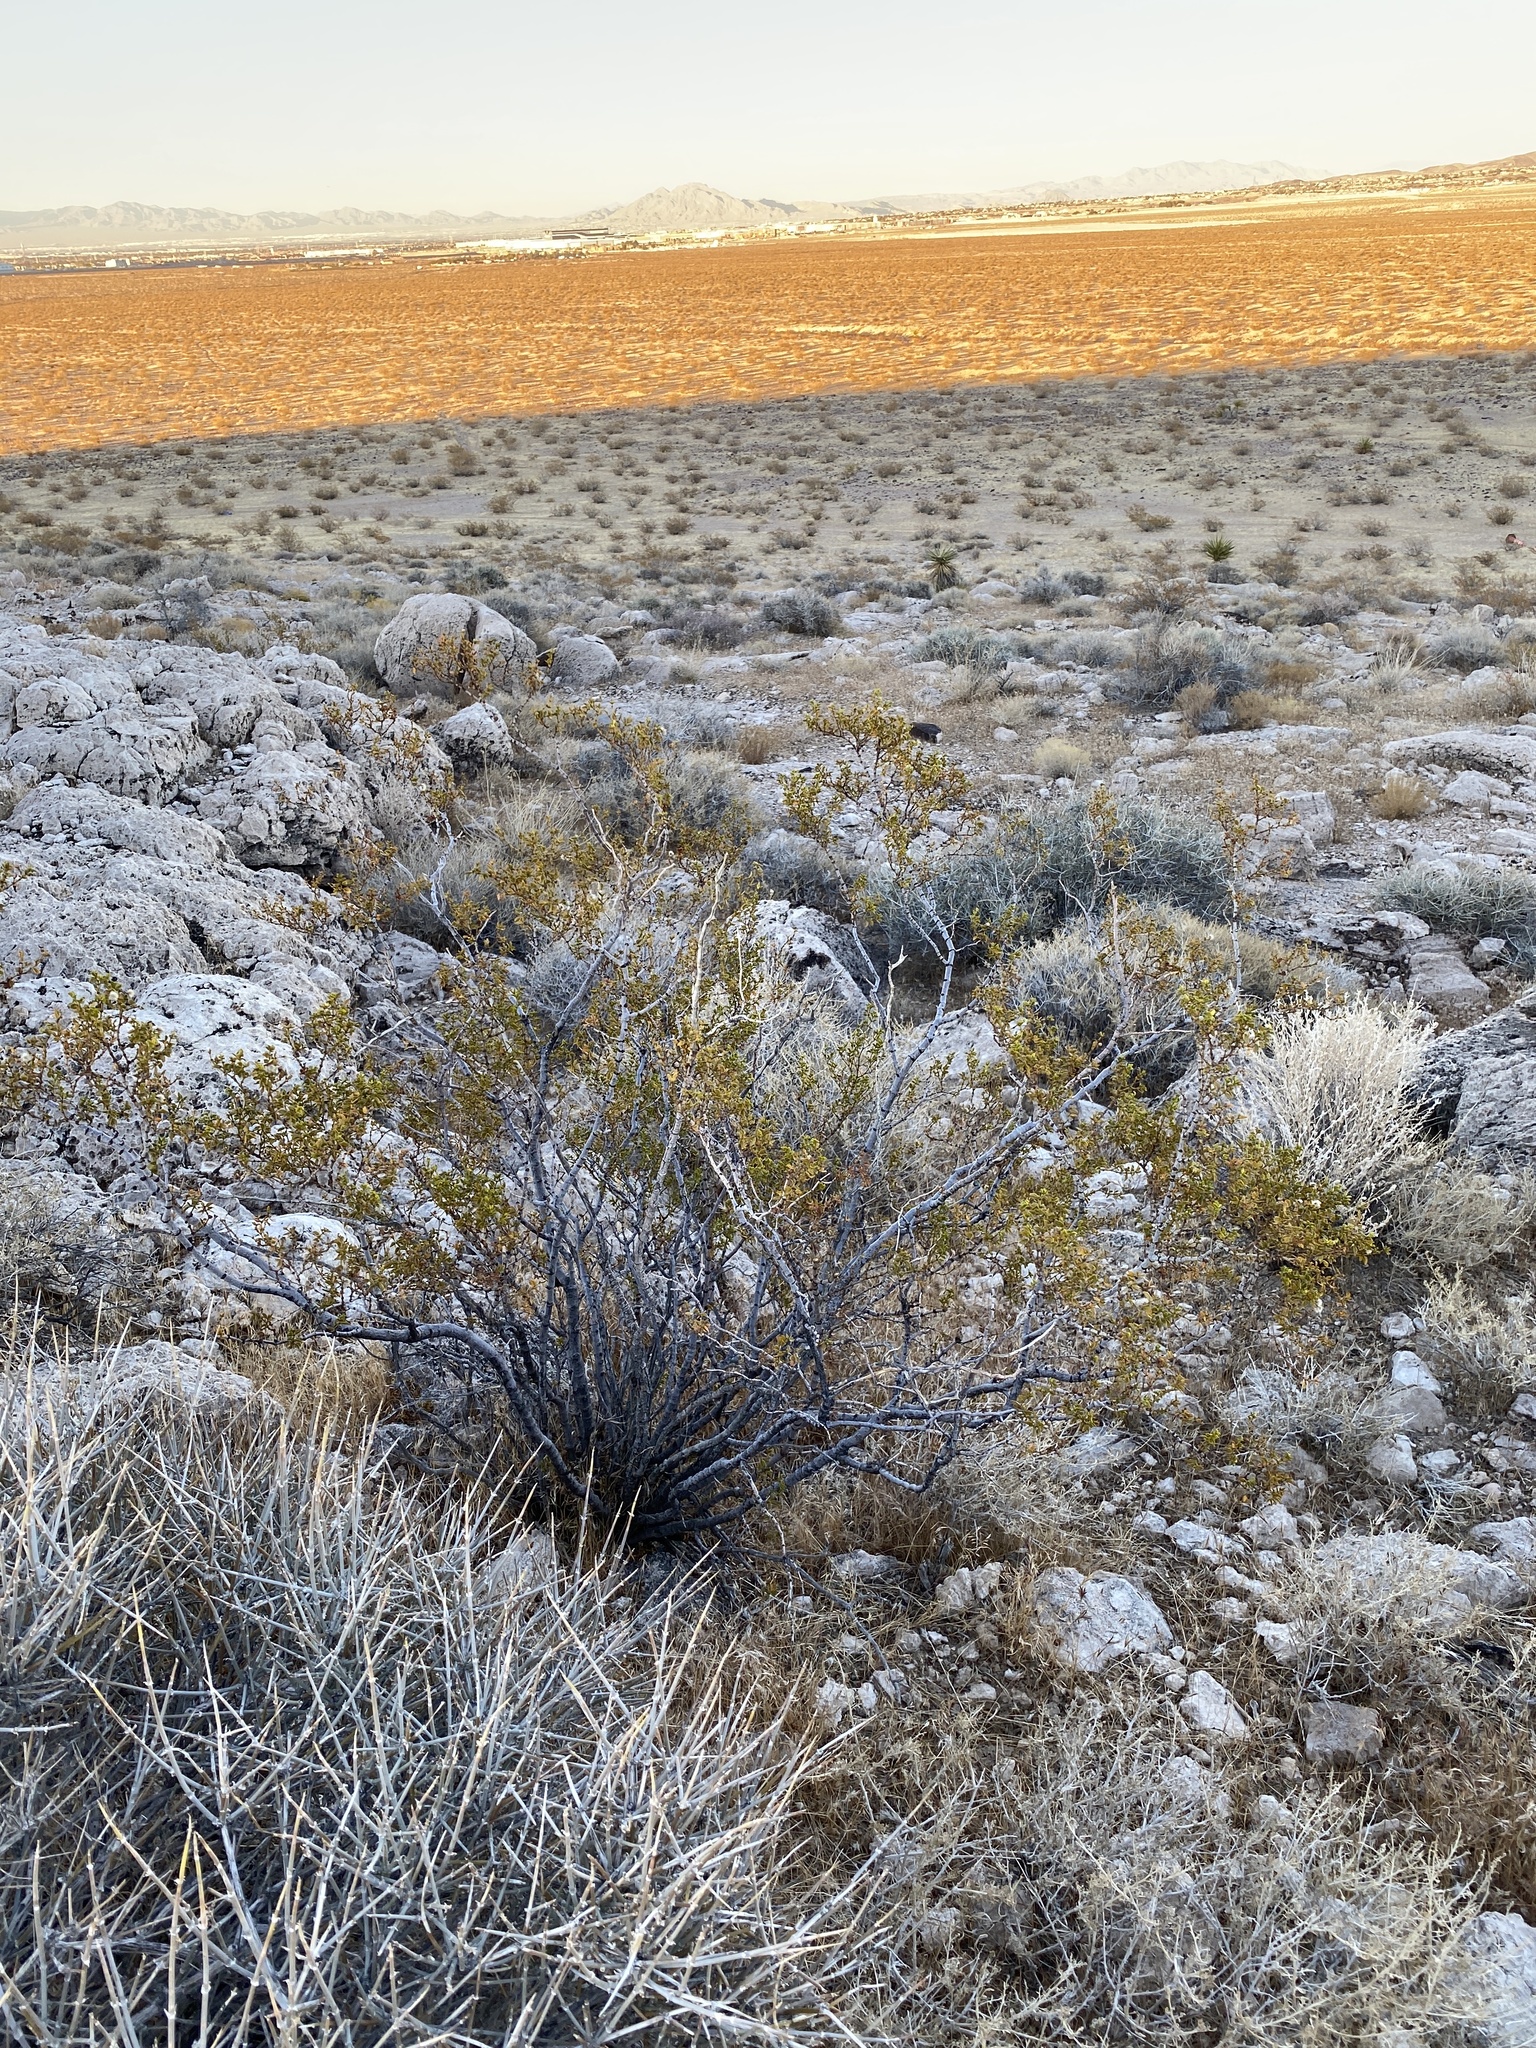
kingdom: Plantae
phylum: Tracheophyta
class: Magnoliopsida
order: Zygophyllales
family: Zygophyllaceae
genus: Larrea
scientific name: Larrea tridentata
